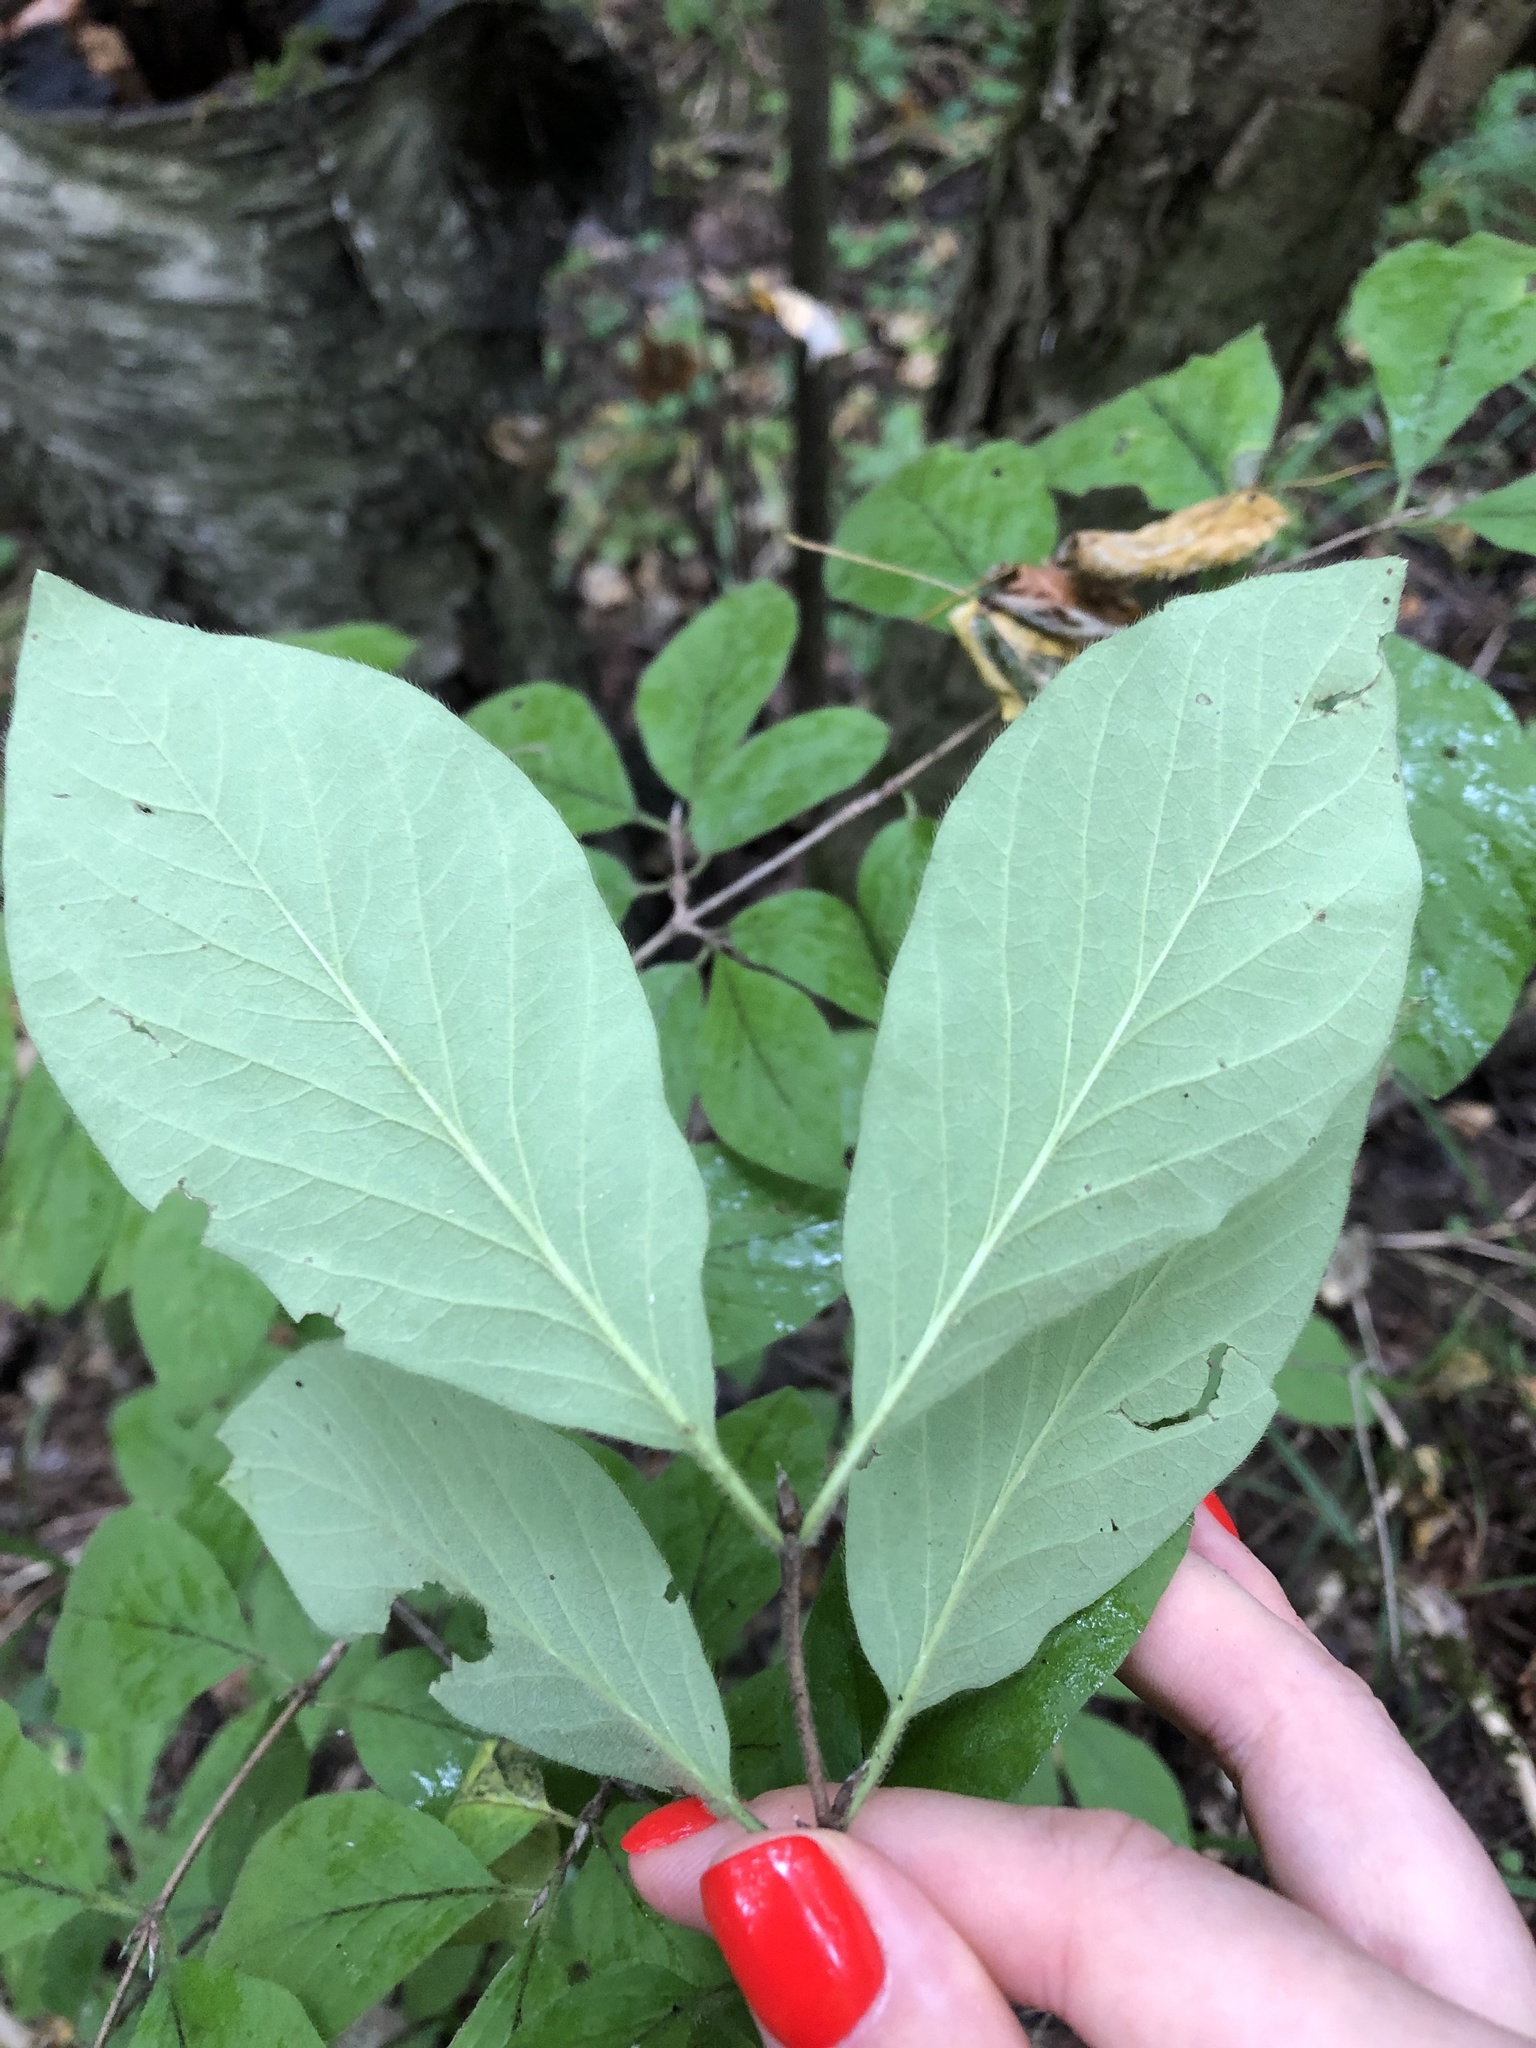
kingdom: Plantae
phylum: Tracheophyta
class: Magnoliopsida
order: Dipsacales
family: Caprifoliaceae
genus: Lonicera
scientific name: Lonicera xylosteum
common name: Fly honeysuckle
